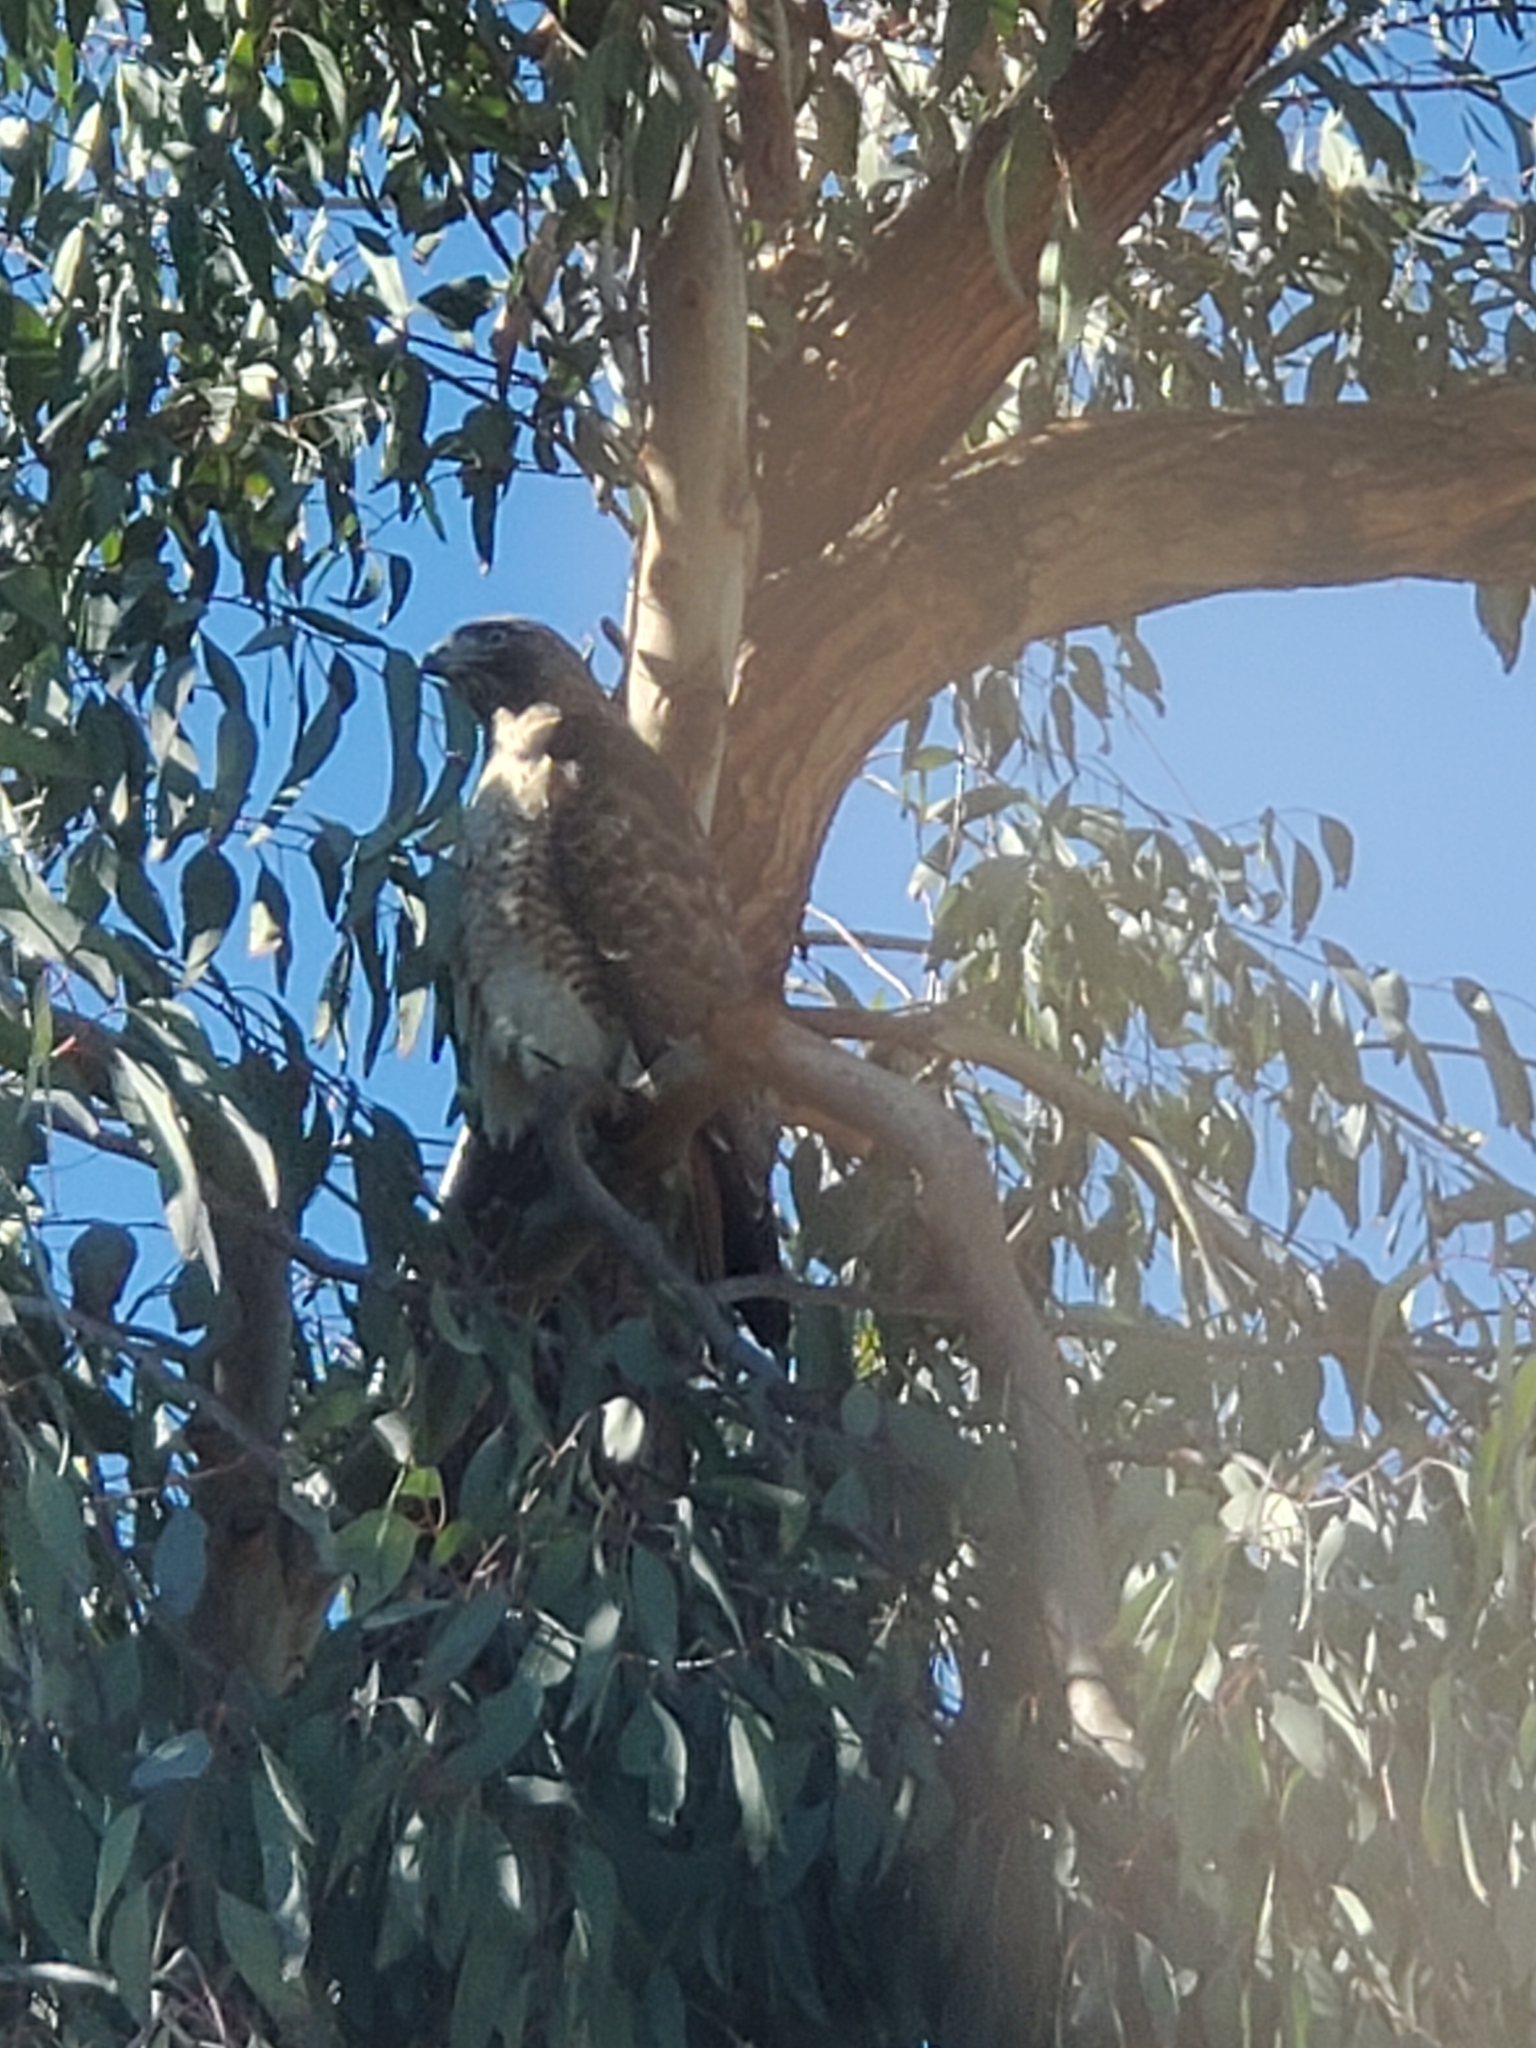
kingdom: Animalia
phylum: Chordata
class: Aves
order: Accipitriformes
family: Accipitridae
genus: Buteo
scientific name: Buteo jamaicensis
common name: Red-tailed hawk
